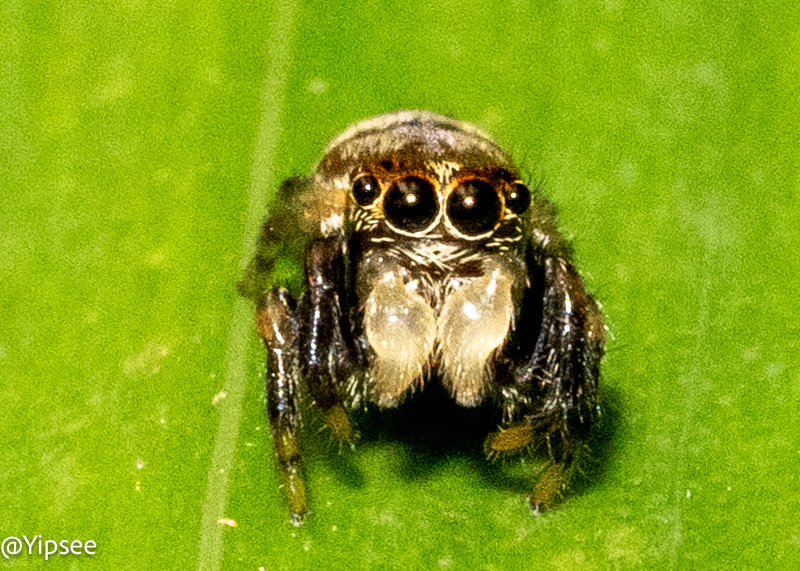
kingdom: Animalia
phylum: Arthropoda
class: Arachnida
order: Araneae
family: Salticidae
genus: Ptocasius
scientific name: Ptocasius strupifer
